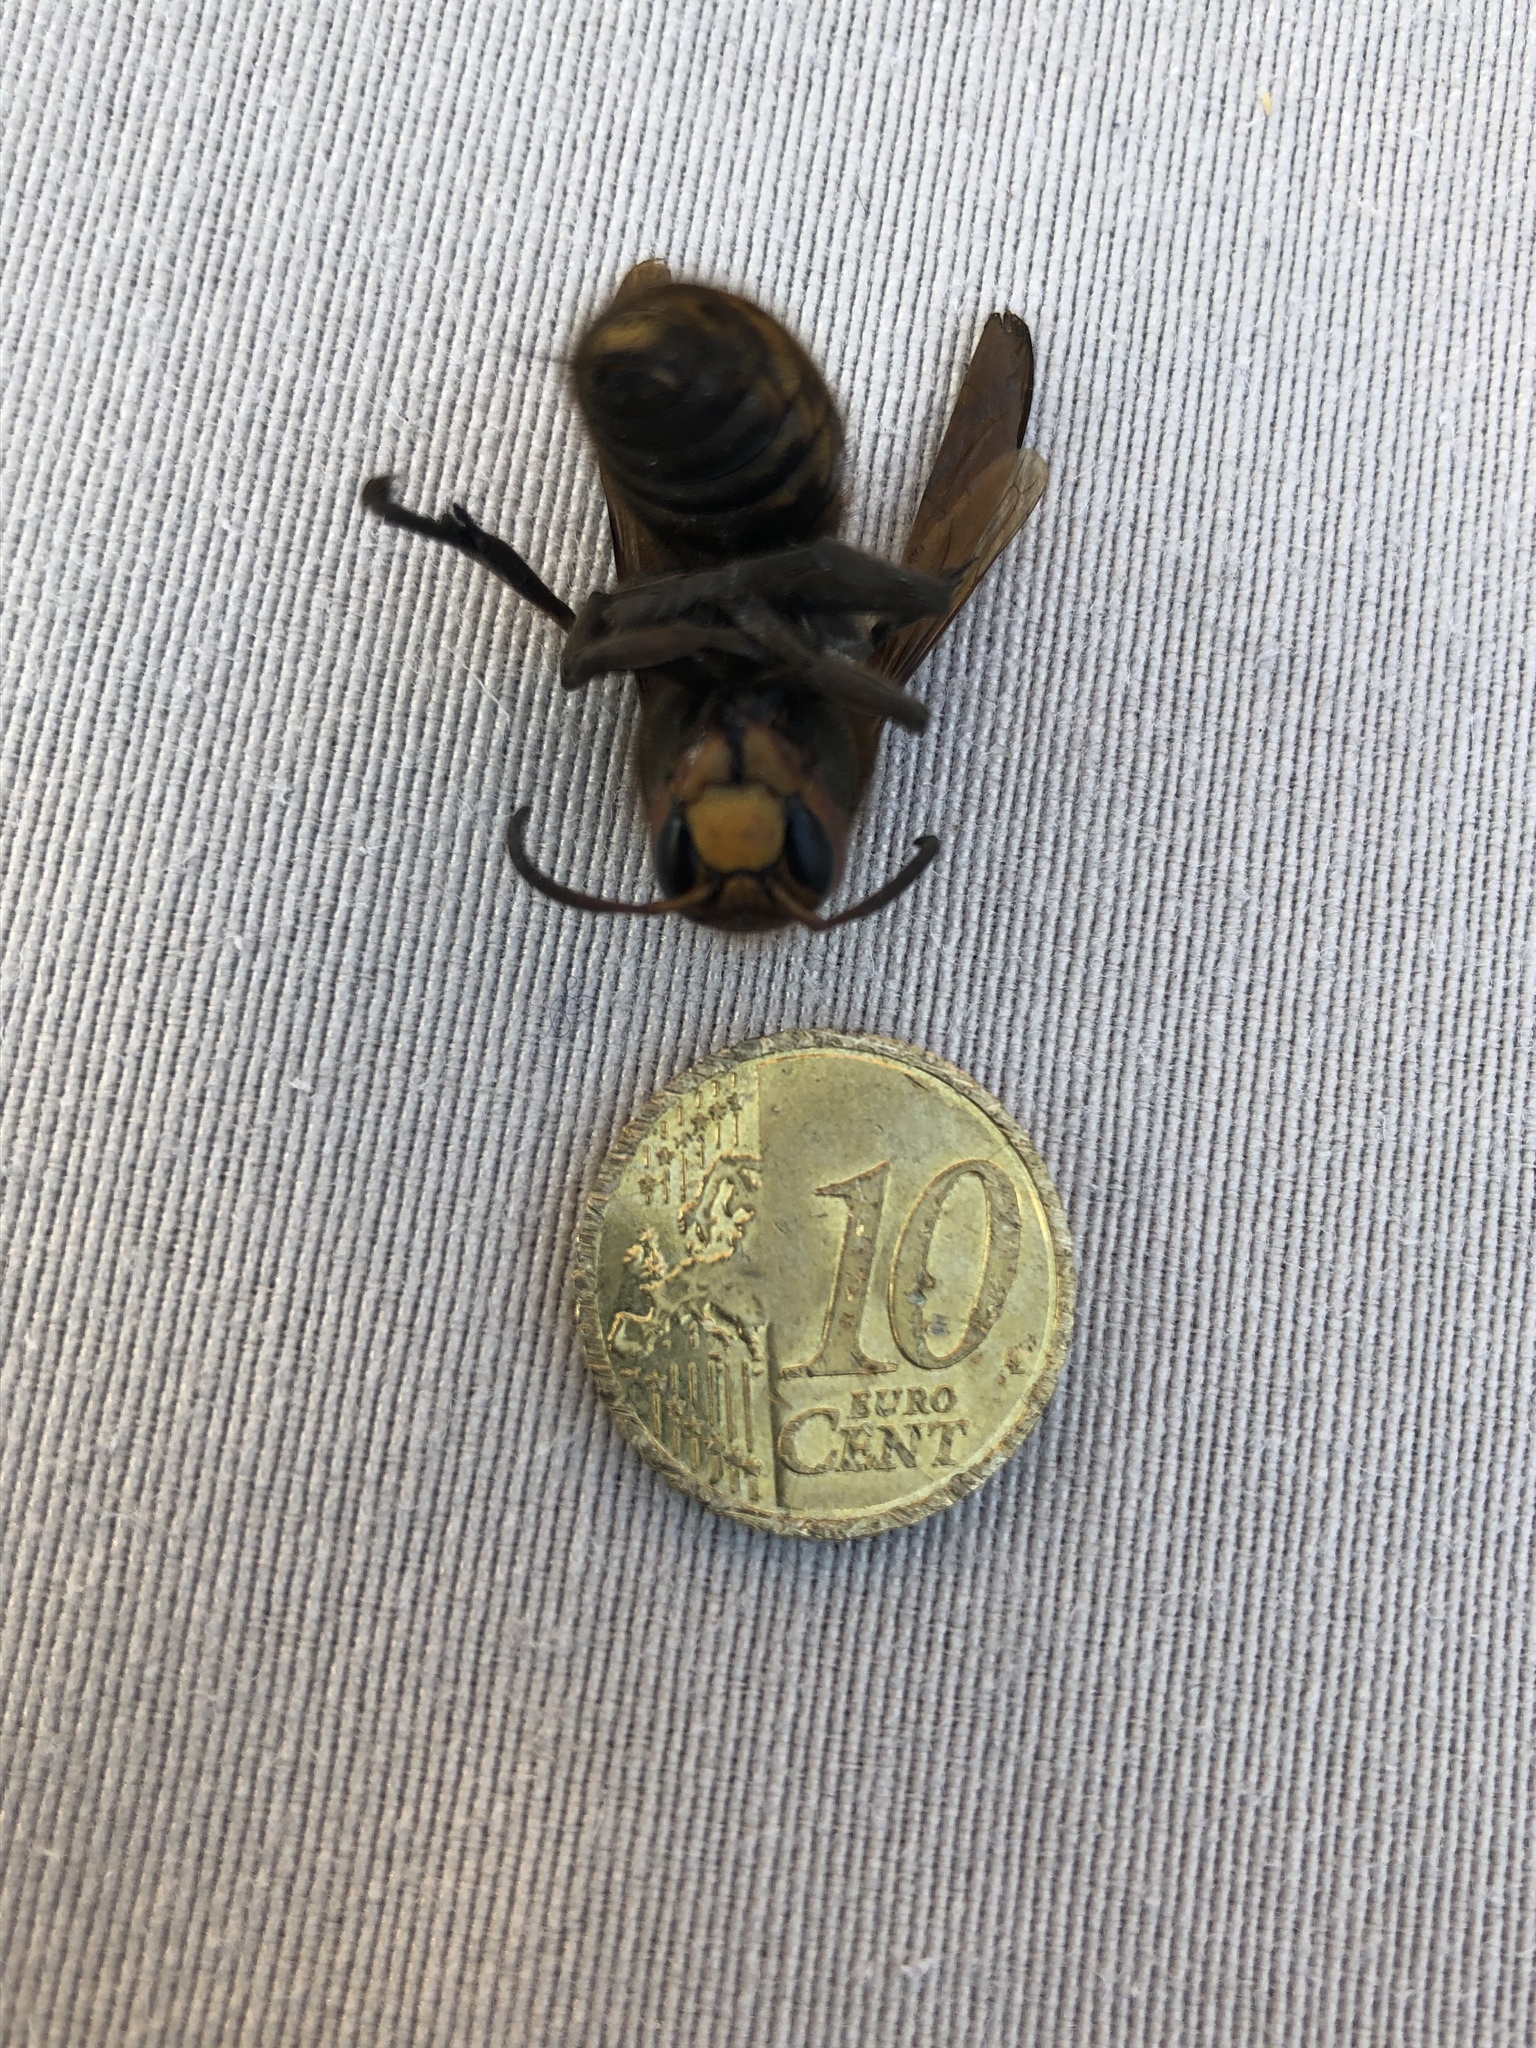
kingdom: Animalia
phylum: Arthropoda
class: Insecta
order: Hymenoptera
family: Vespidae
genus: Vespa
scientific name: Vespa crabro
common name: Hornet
